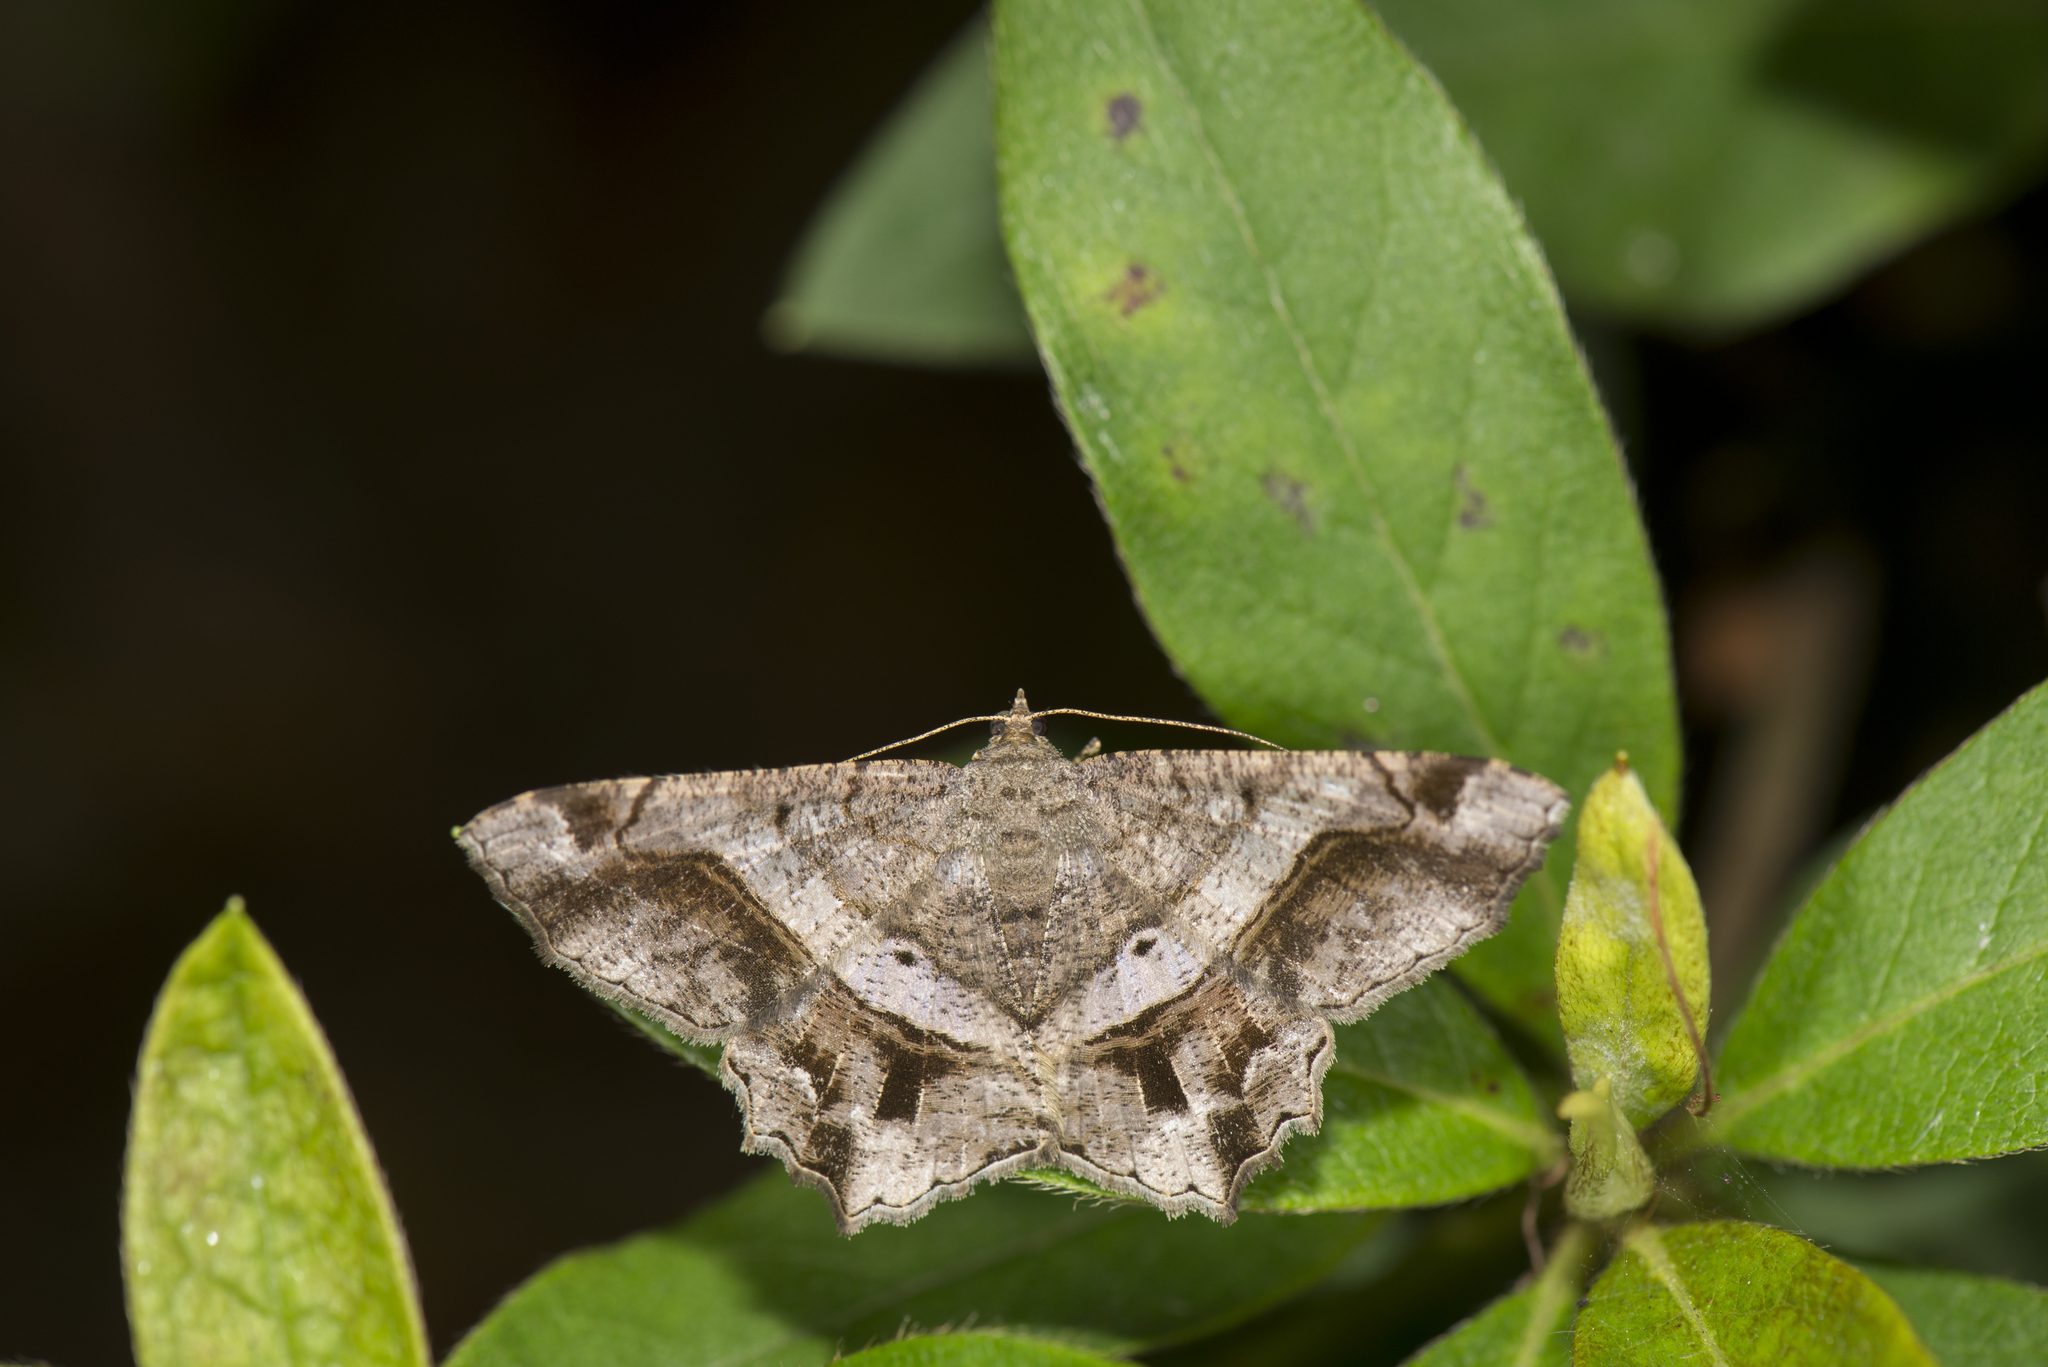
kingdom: Animalia
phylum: Arthropoda
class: Insecta
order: Lepidoptera
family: Geometridae
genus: Chiasmia
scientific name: Chiasmia inchoata
